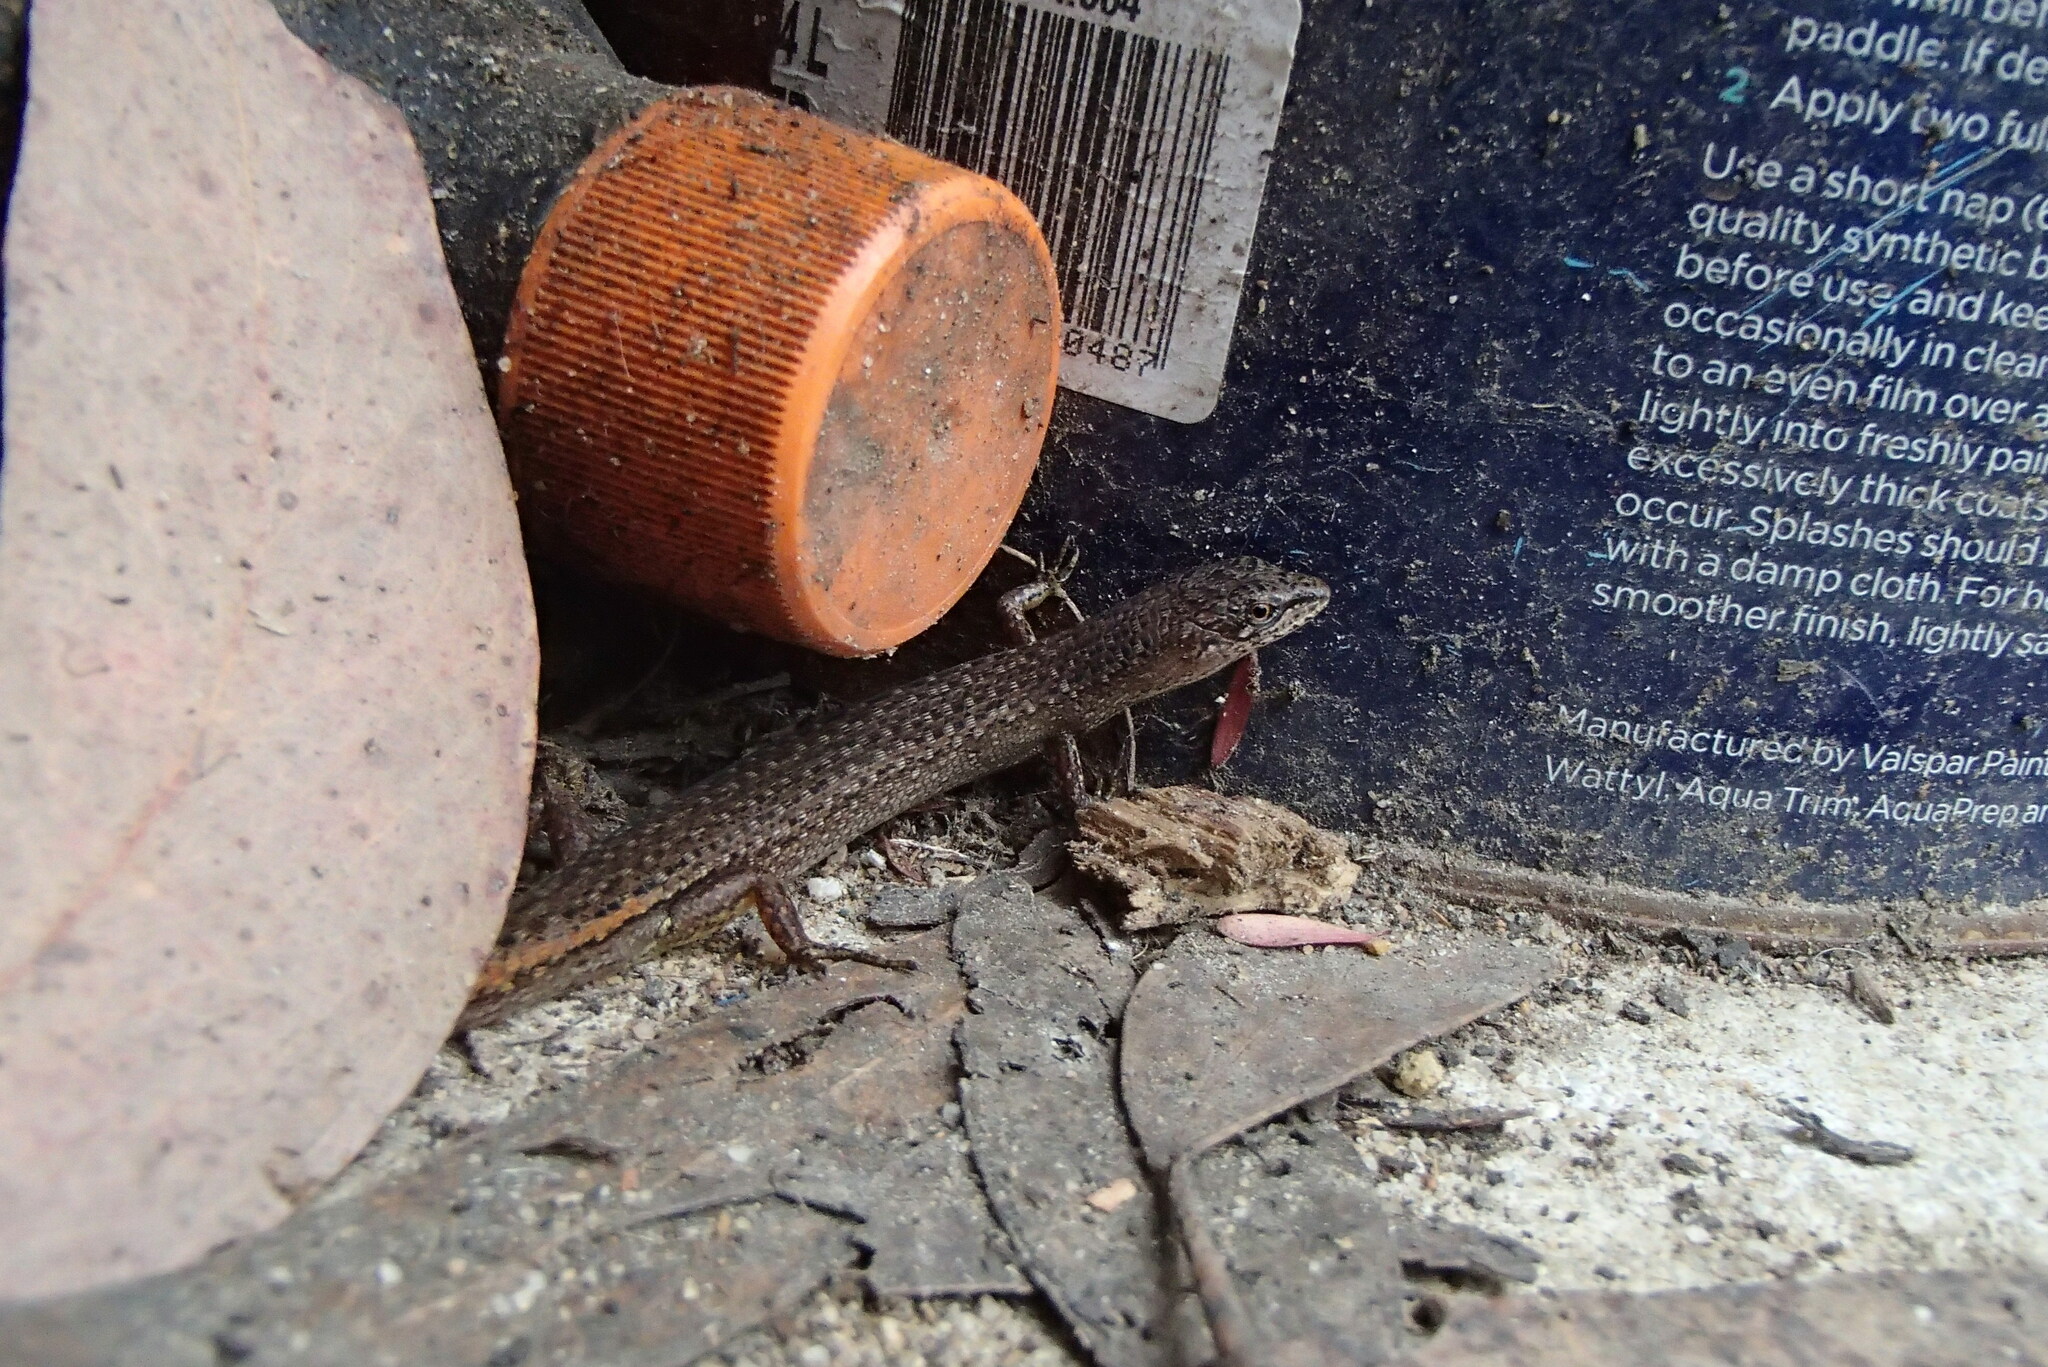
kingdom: Animalia
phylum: Chordata
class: Squamata
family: Scincidae
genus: Saproscincus
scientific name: Saproscincus mustelinus
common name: Southern weasel skink
